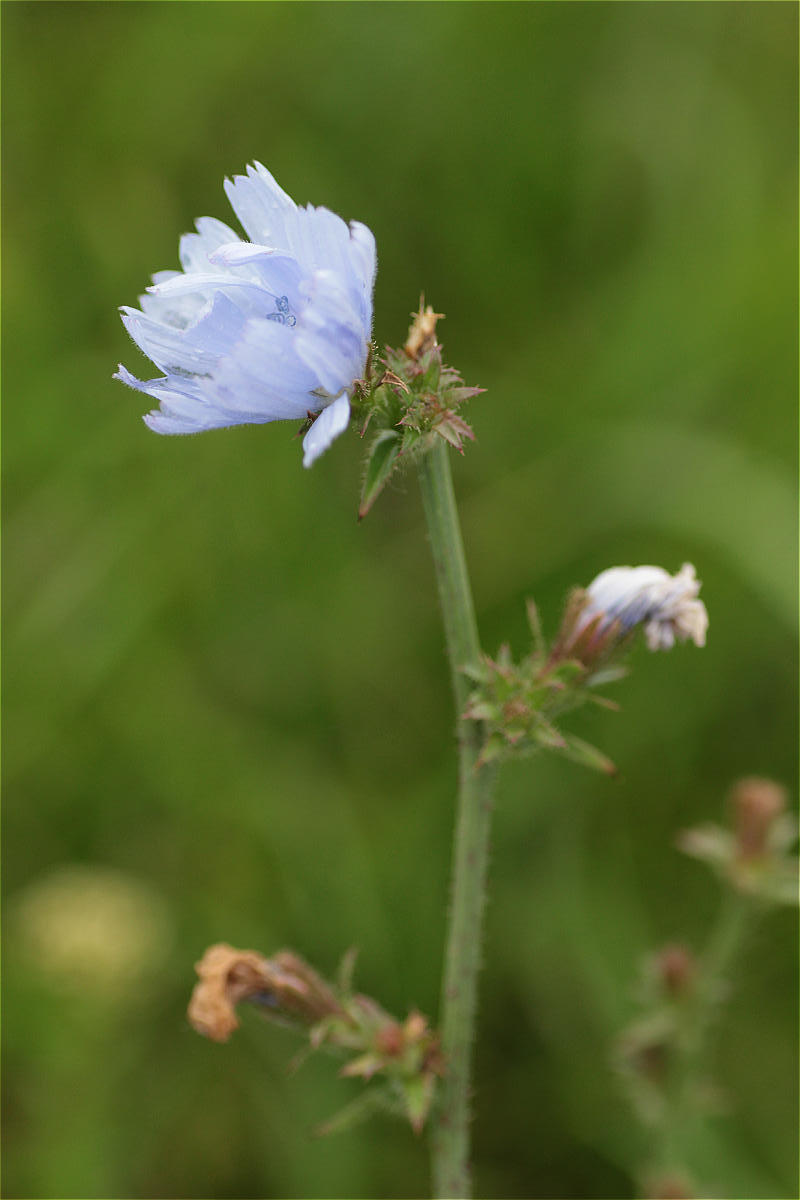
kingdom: Plantae
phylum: Tracheophyta
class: Magnoliopsida
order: Asterales
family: Asteraceae
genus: Cichorium
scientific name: Cichorium intybus
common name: Chicory
